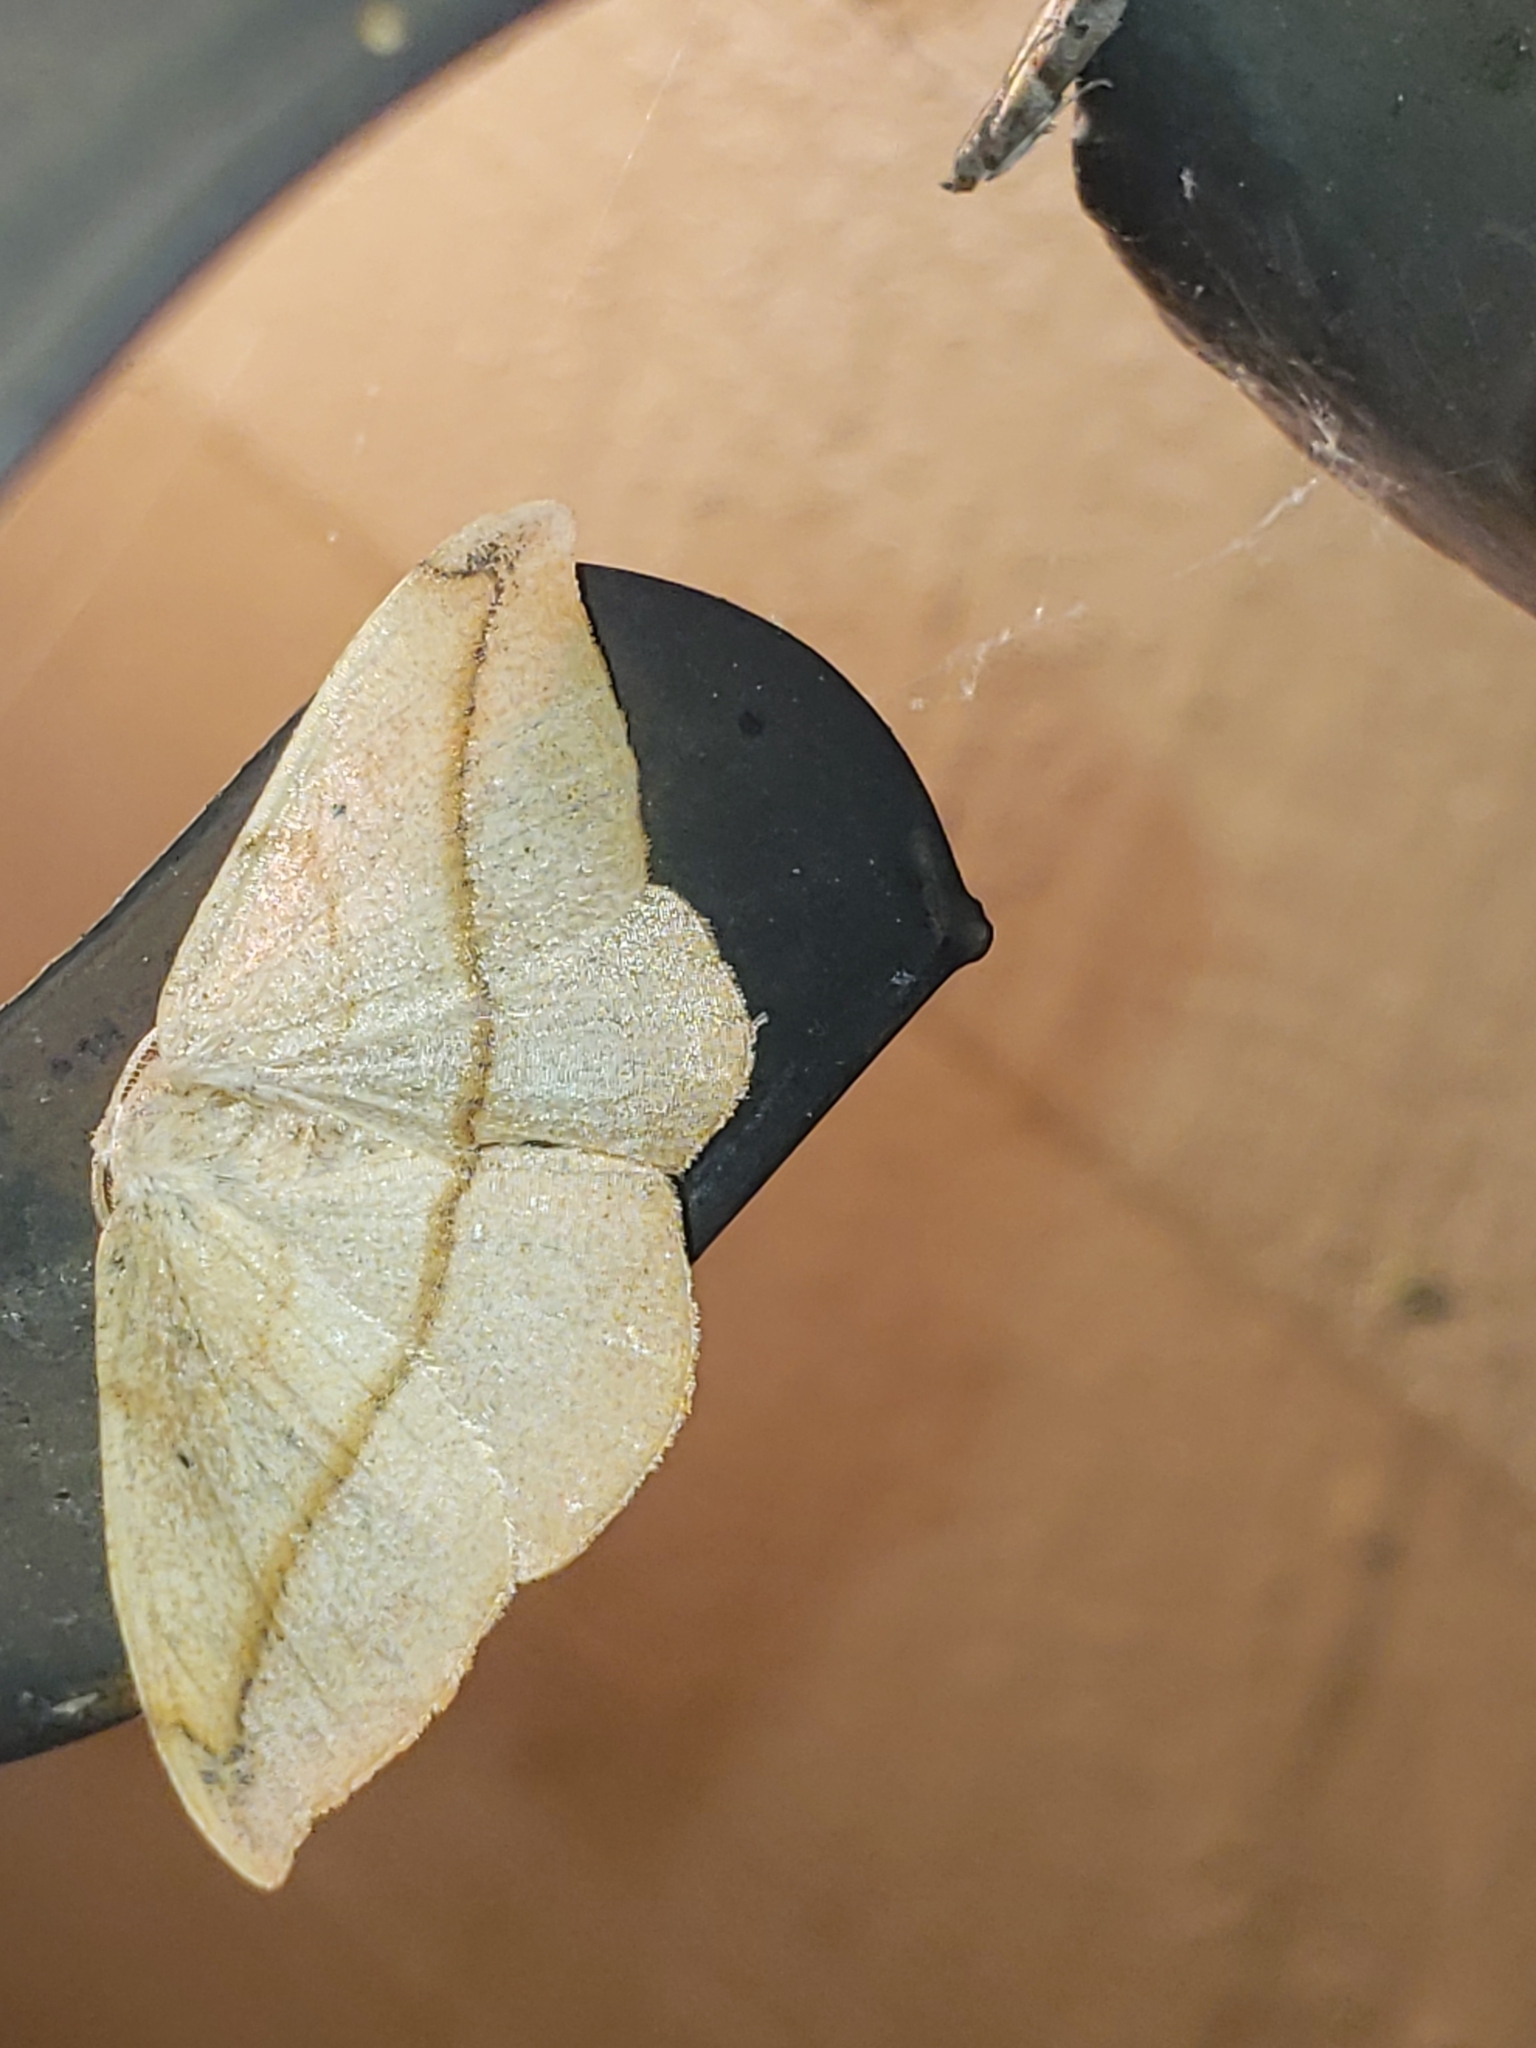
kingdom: Animalia
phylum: Arthropoda
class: Insecta
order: Lepidoptera
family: Geometridae
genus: Patalene
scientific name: Patalene olyzonaria
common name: Juniper geometer moth
